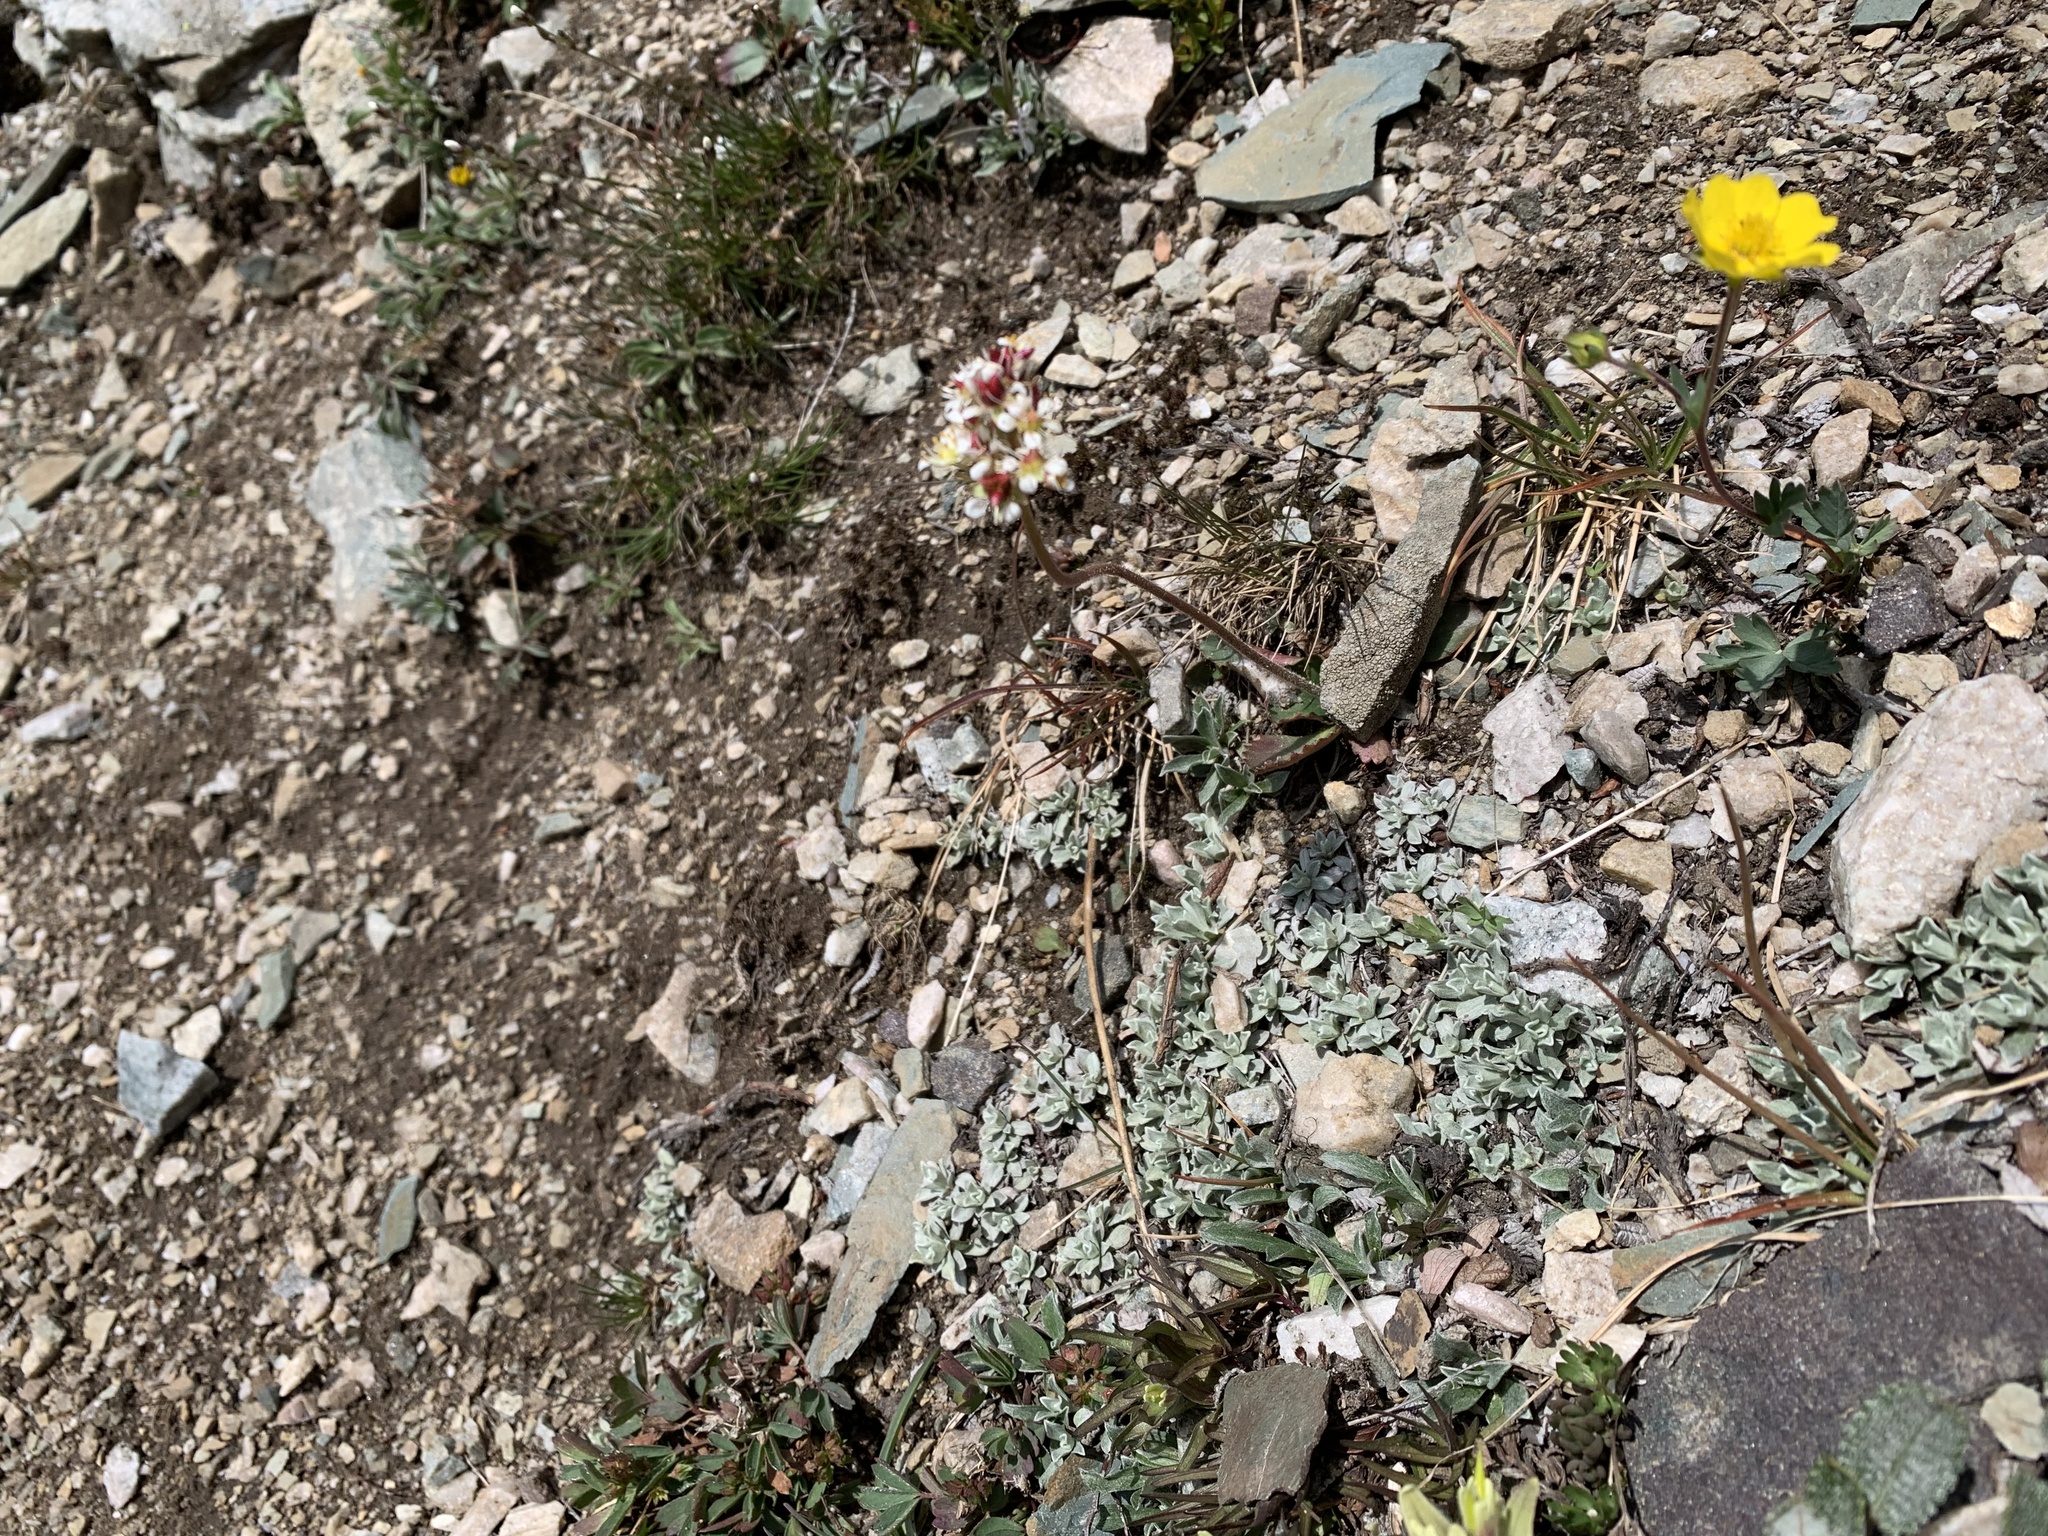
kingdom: Plantae
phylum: Tracheophyta
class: Magnoliopsida
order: Saxifragales
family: Saxifragaceae
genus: Micranthes
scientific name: Micranthes occidentalis
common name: Alberta saxifrage
